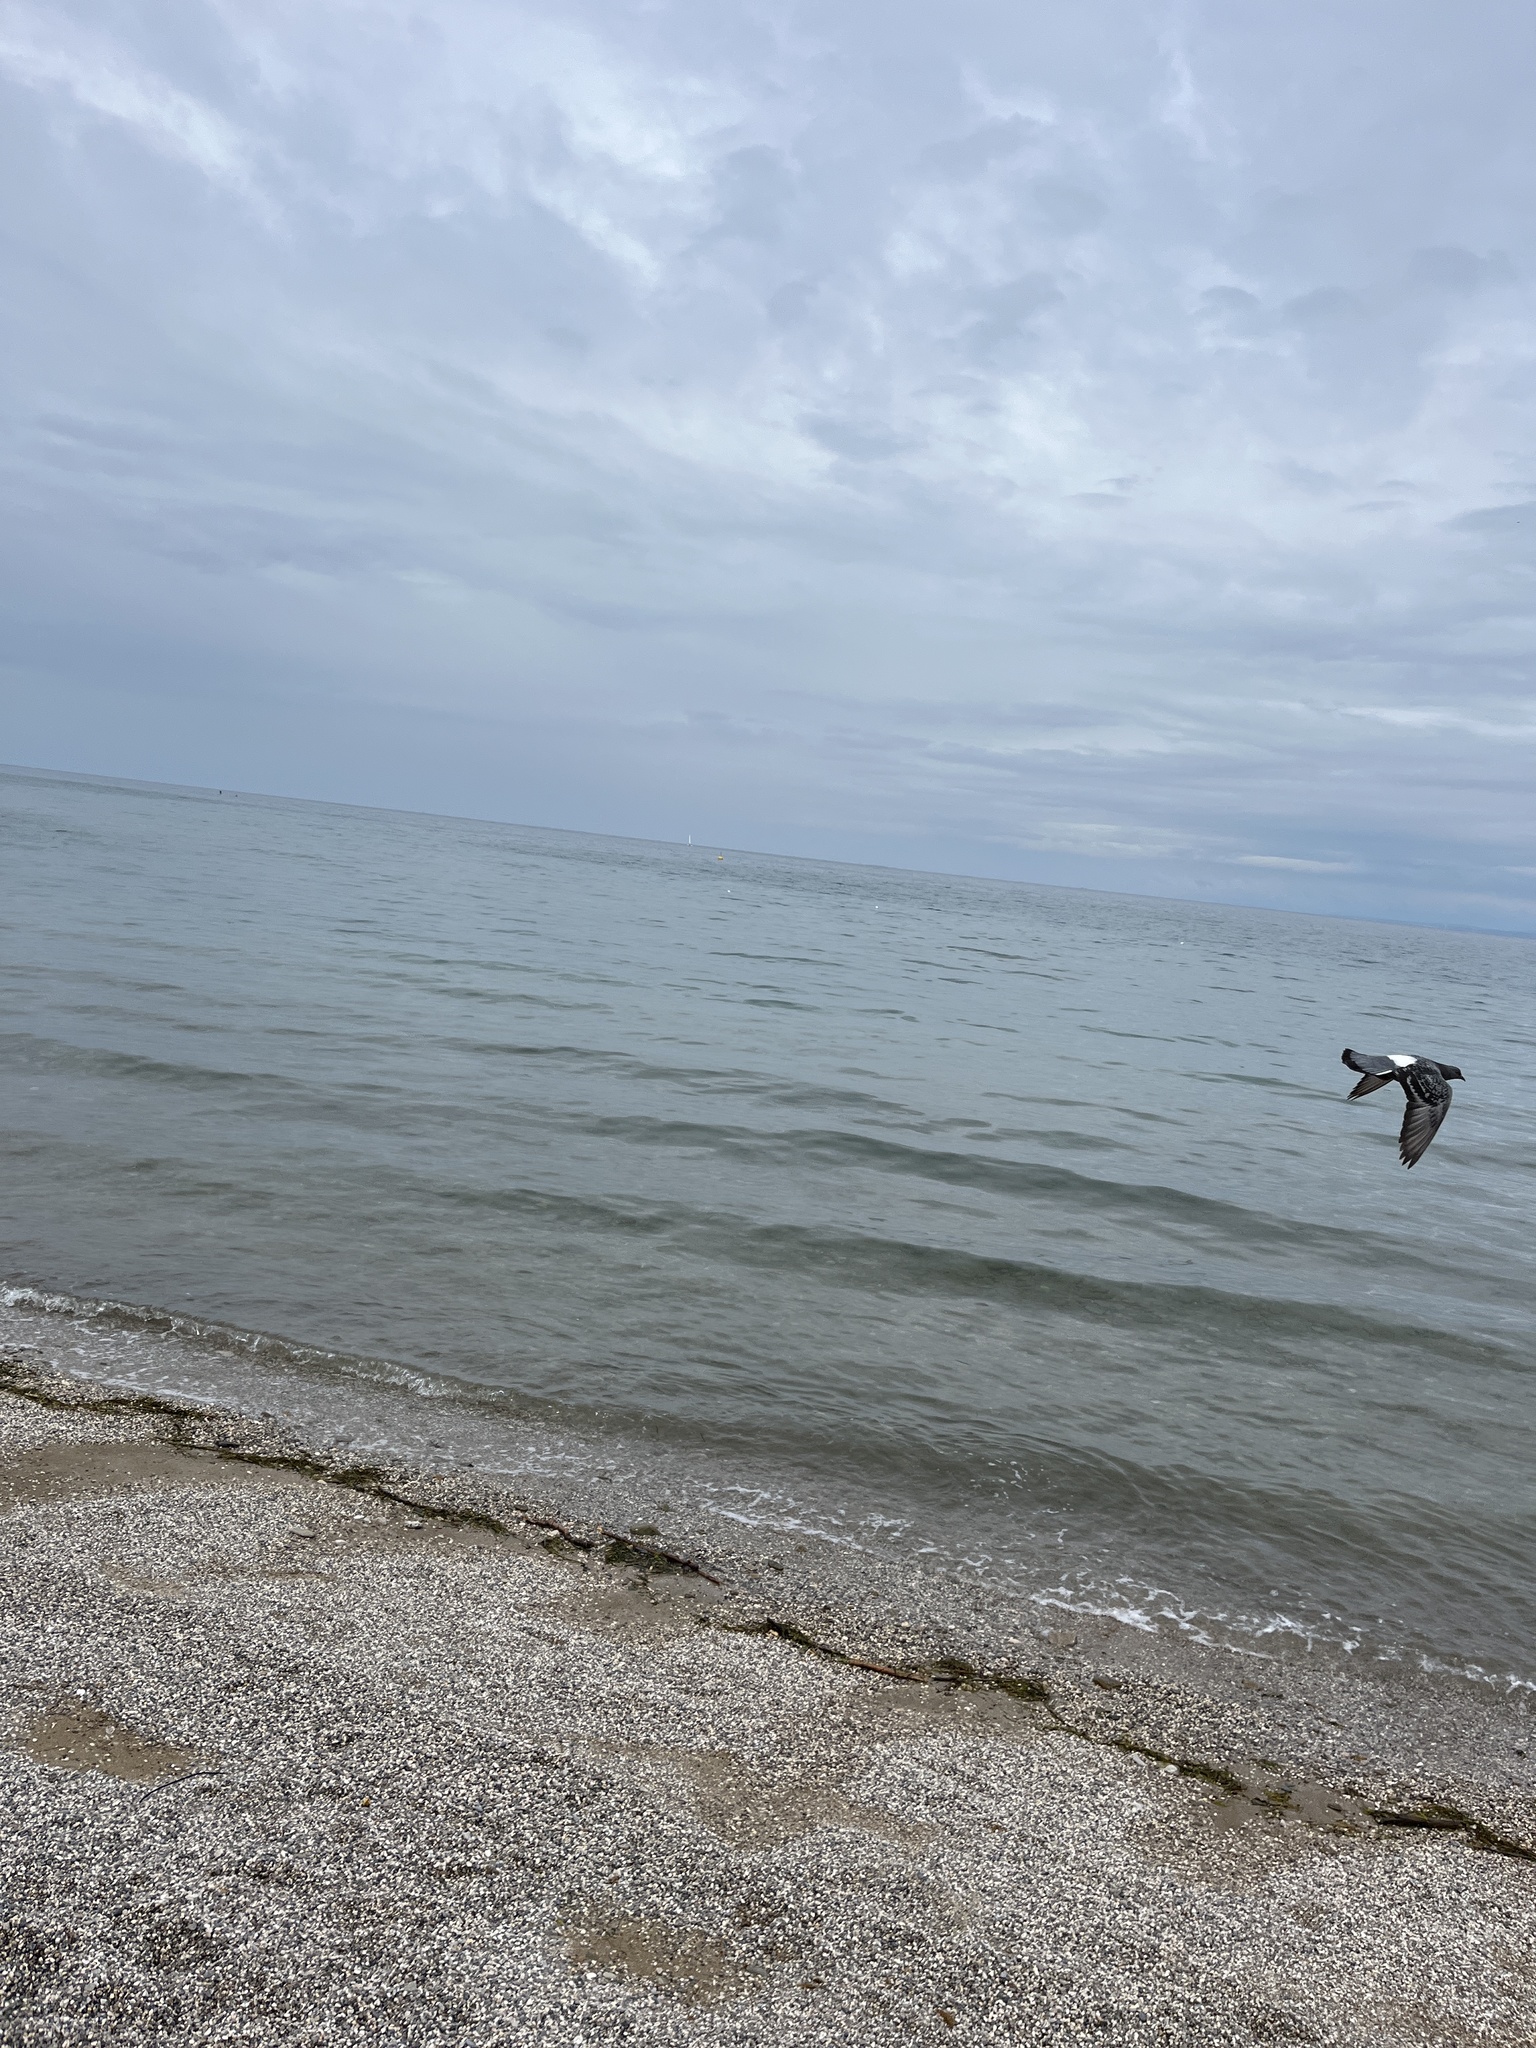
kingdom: Animalia
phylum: Chordata
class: Aves
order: Columbiformes
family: Columbidae
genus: Columba
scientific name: Columba livia
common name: Rock pigeon
